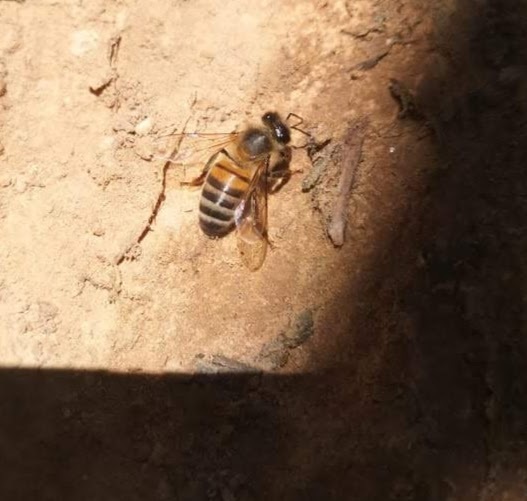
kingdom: Animalia
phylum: Arthropoda
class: Insecta
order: Hymenoptera
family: Apidae
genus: Apis
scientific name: Apis mellifera
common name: Honey bee
